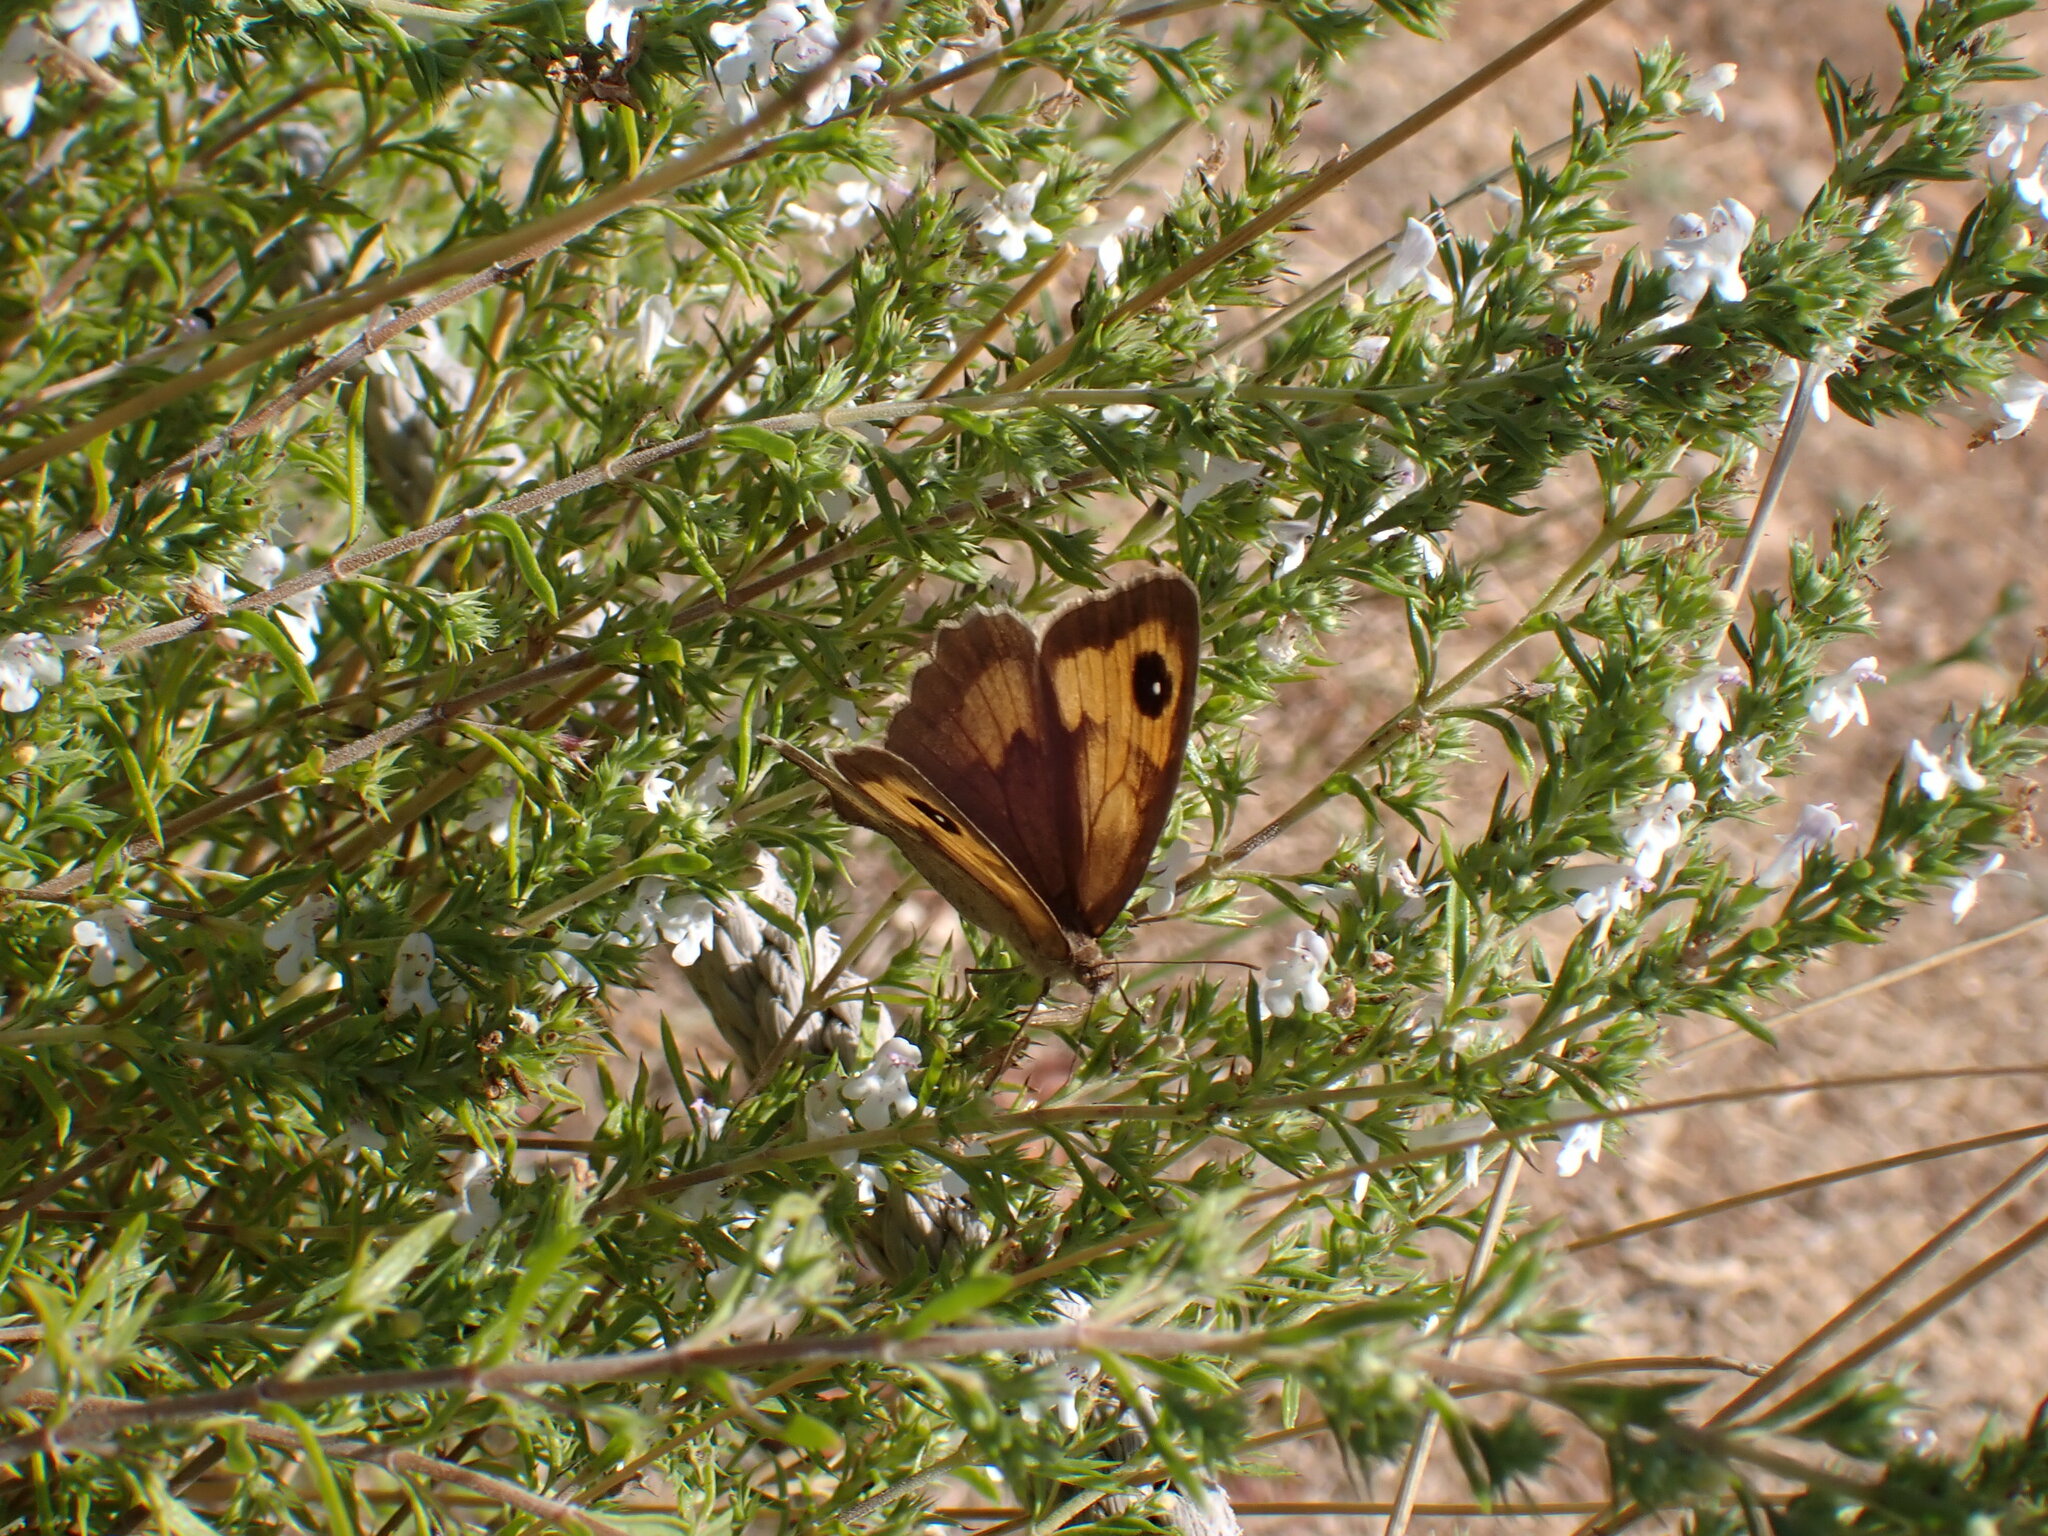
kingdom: Animalia
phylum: Arthropoda
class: Insecta
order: Lepidoptera
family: Nymphalidae
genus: Maniola
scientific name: Maniola jurtina
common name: Meadow brown
